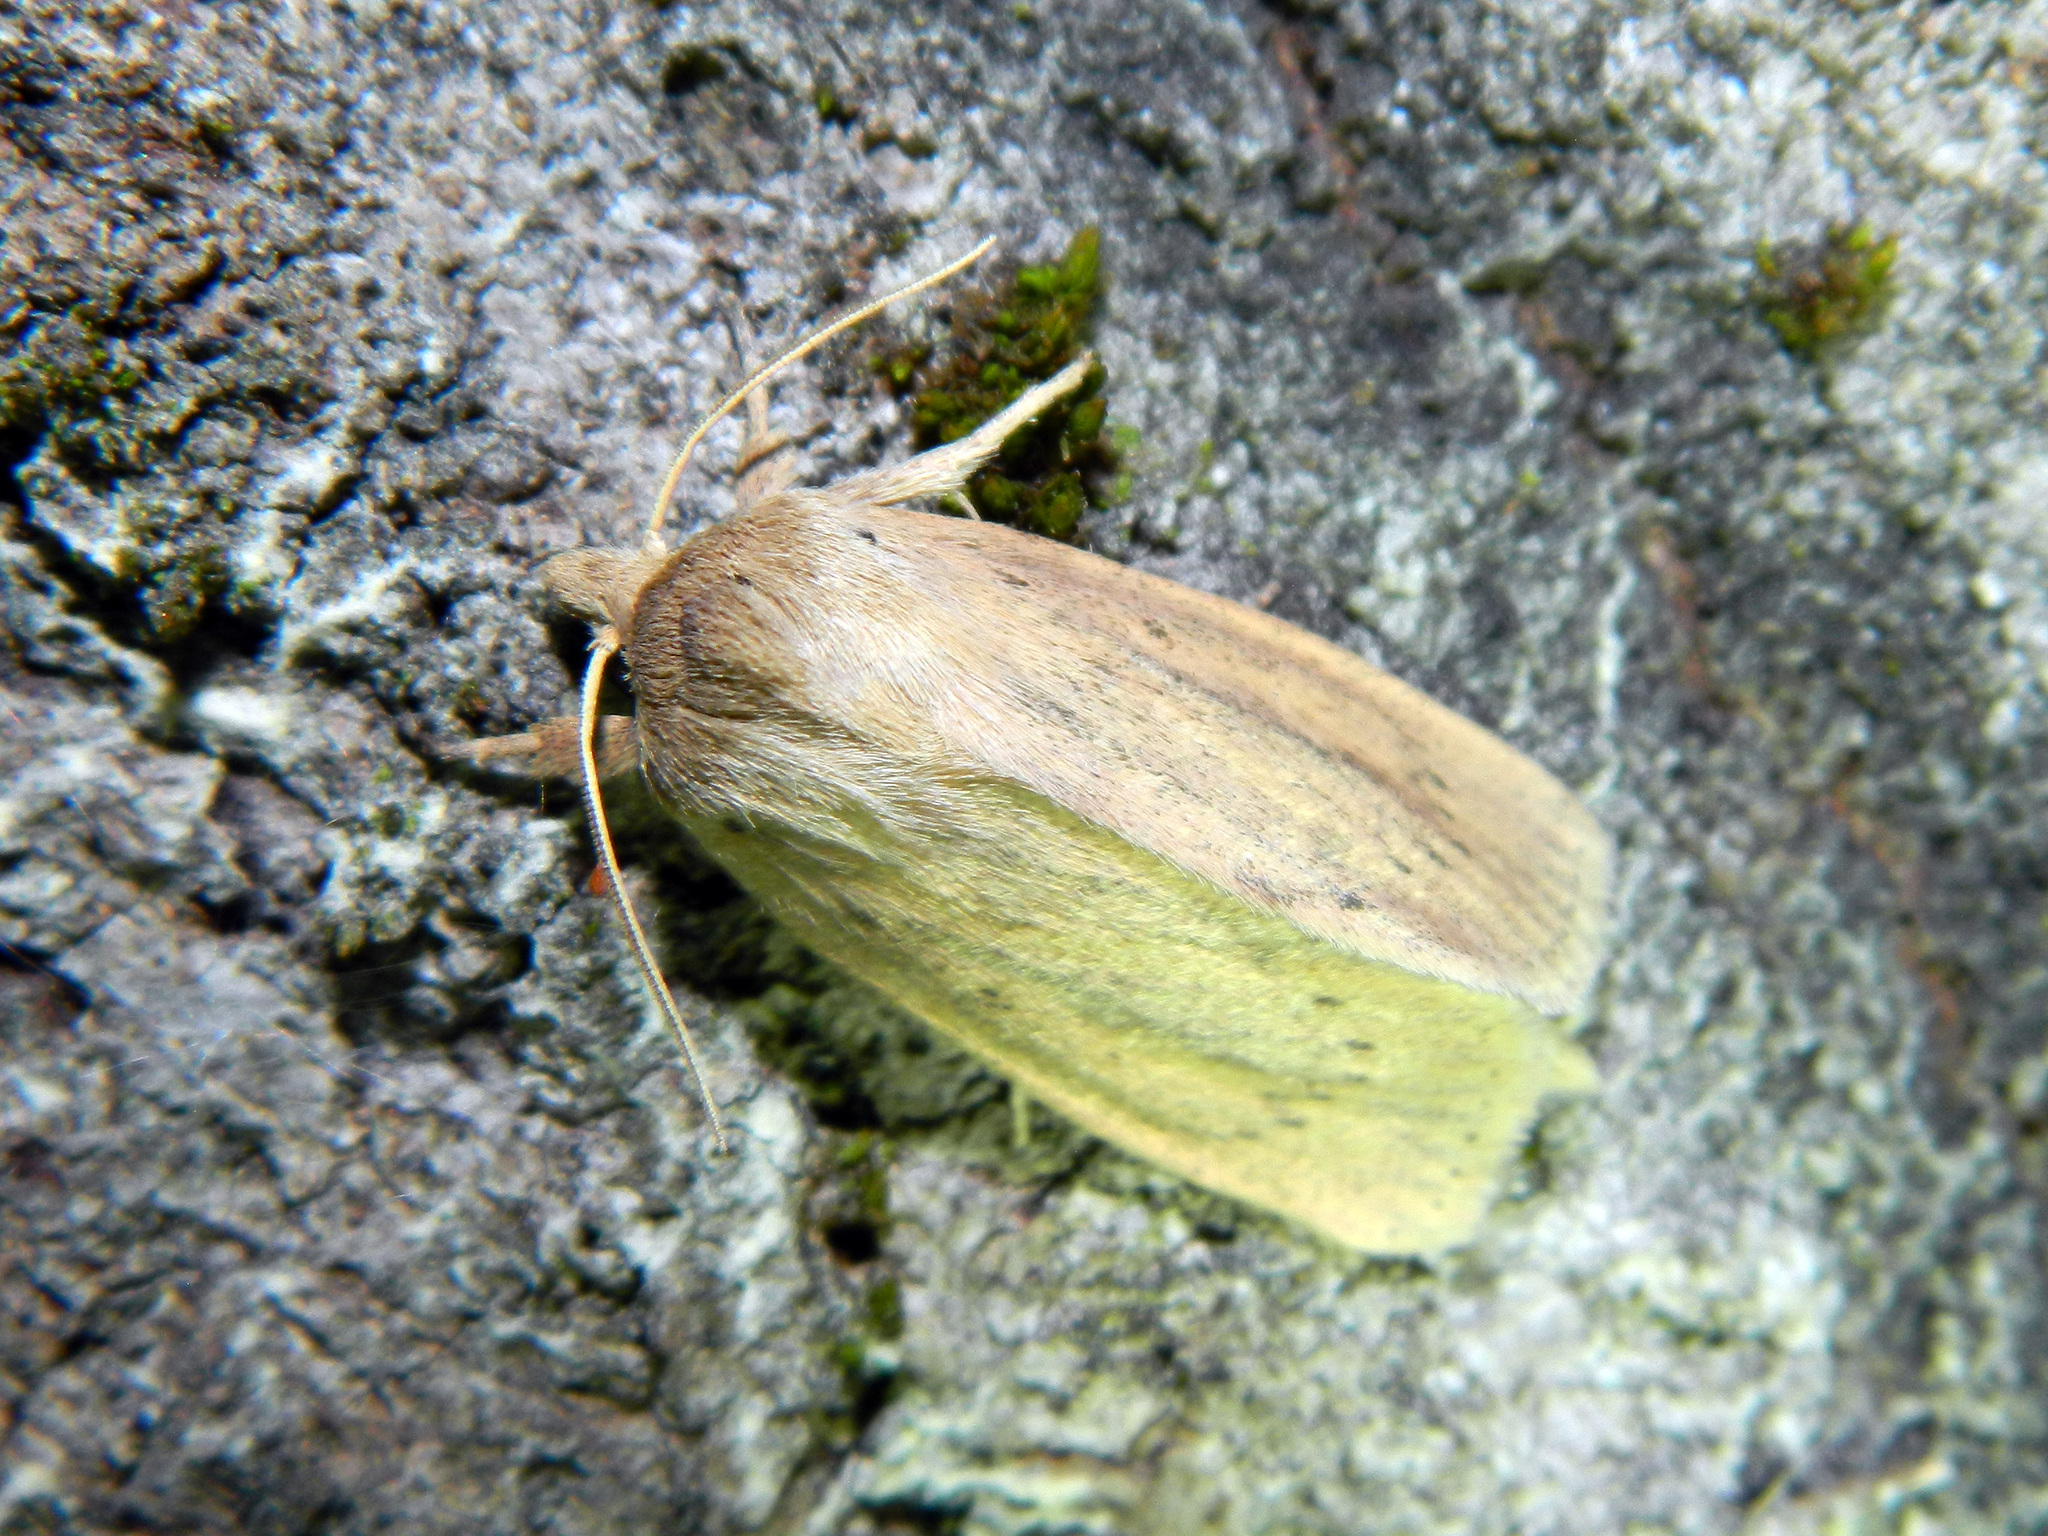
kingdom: Animalia
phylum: Arthropoda
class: Insecta
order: Lepidoptera
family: Noctuidae
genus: Globia
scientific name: Globia oblonga
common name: Oblong sedge borer moth
